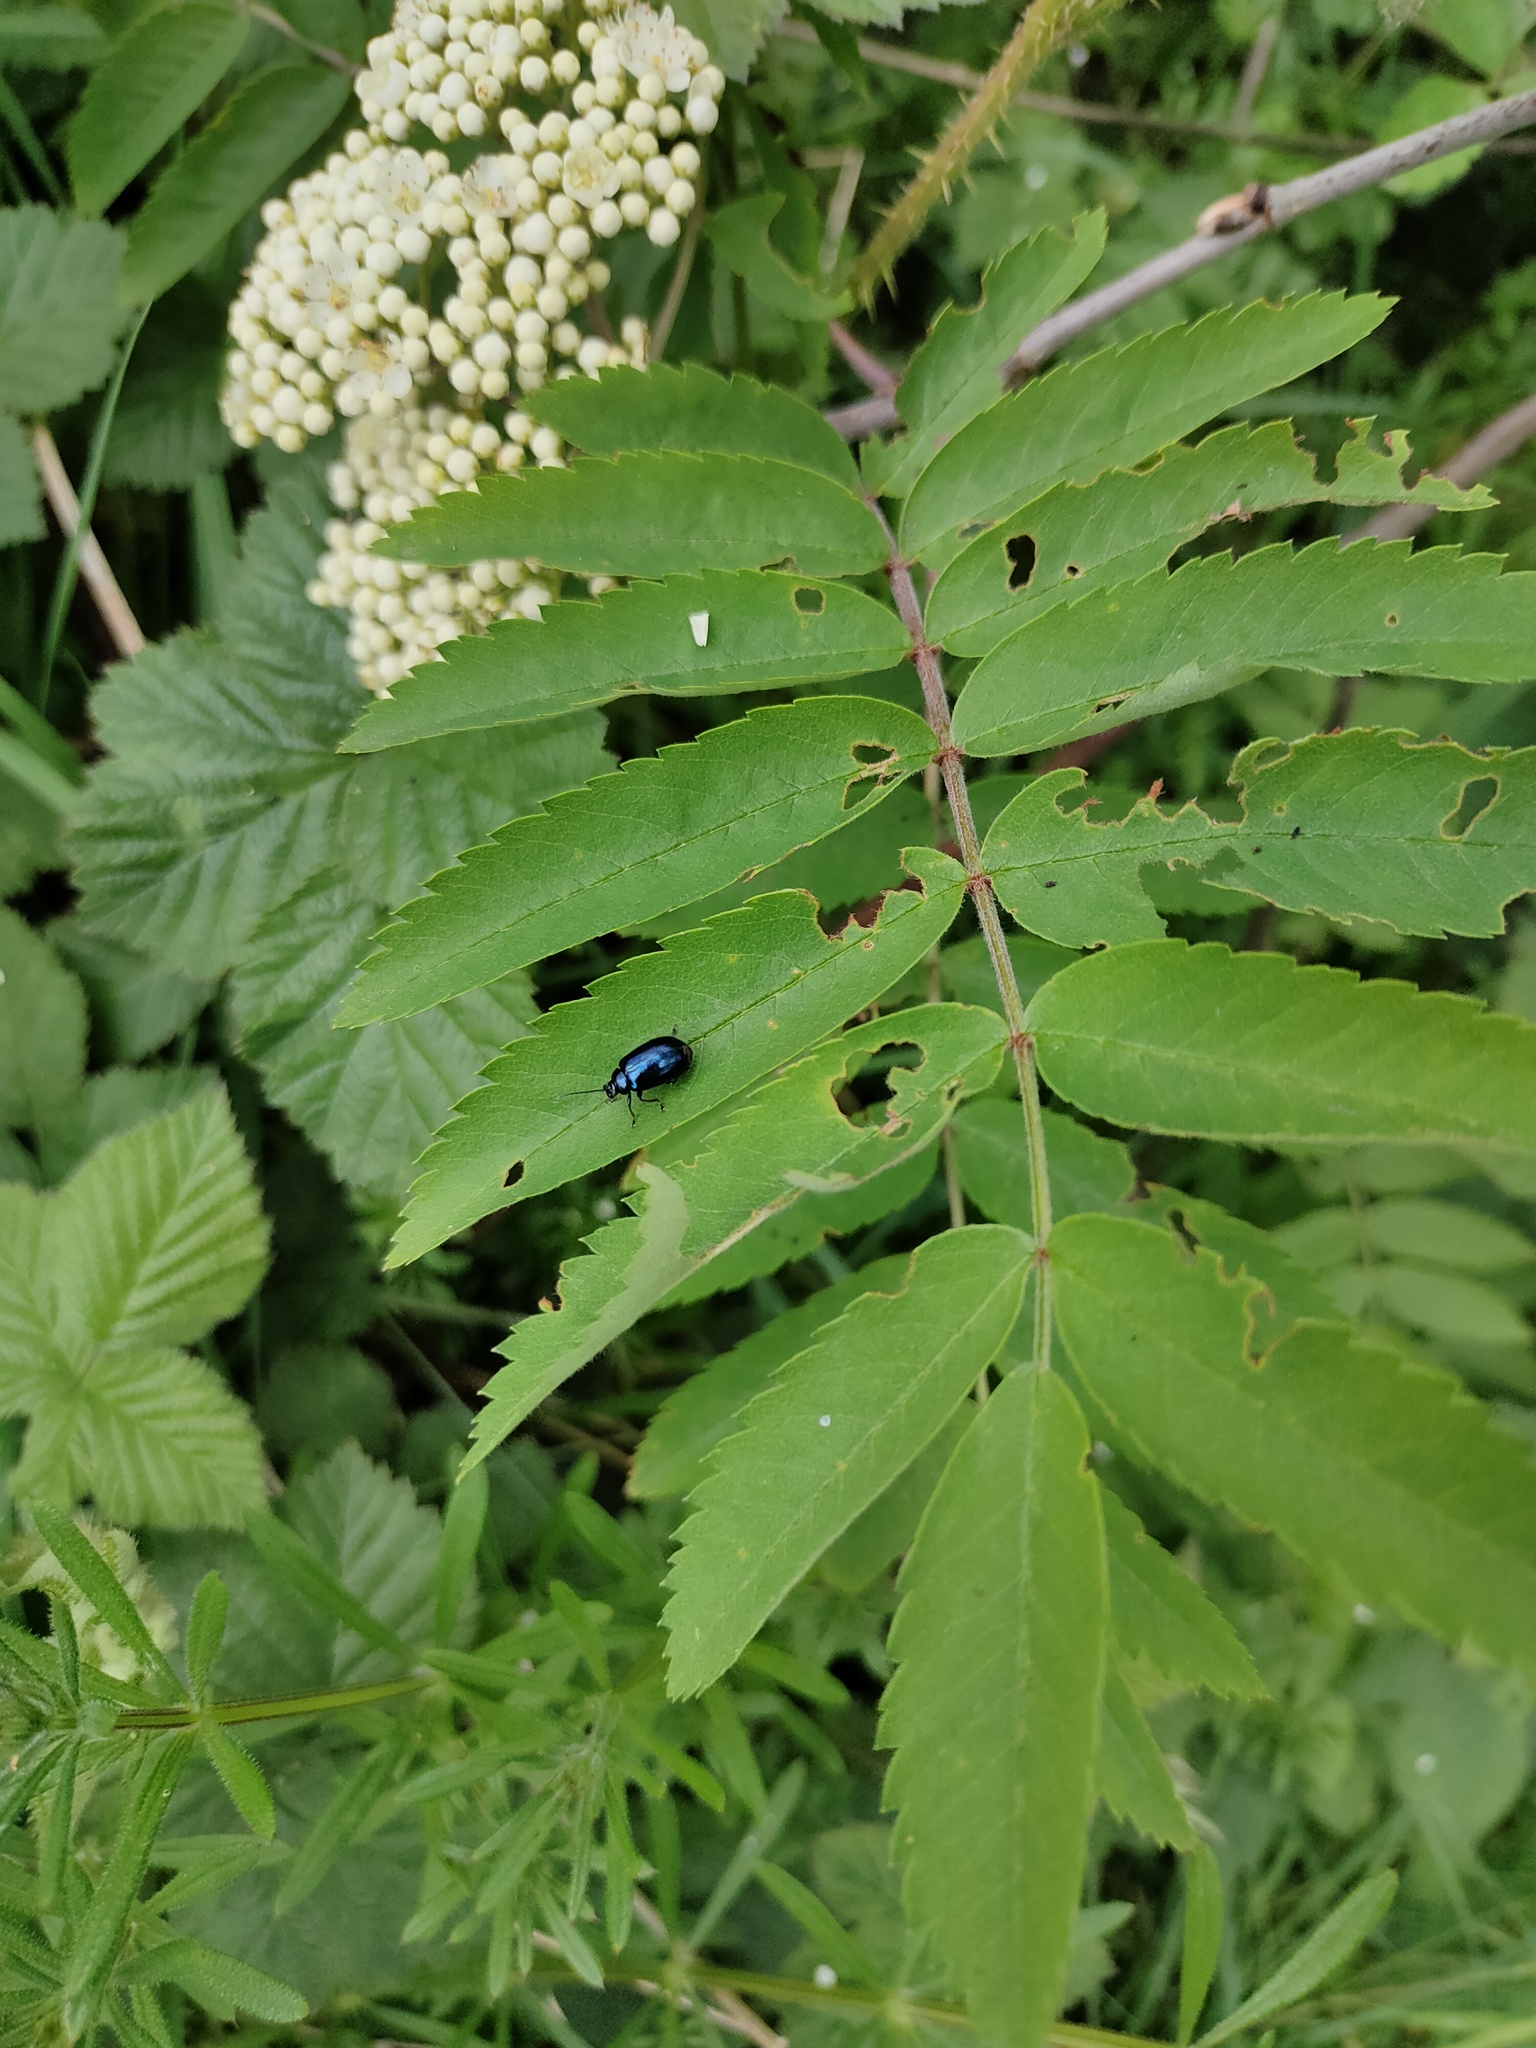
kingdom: Animalia
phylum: Arthropoda
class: Insecta
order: Coleoptera
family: Chrysomelidae
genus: Agelastica
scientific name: Agelastica alni
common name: Alder leaf beetle
